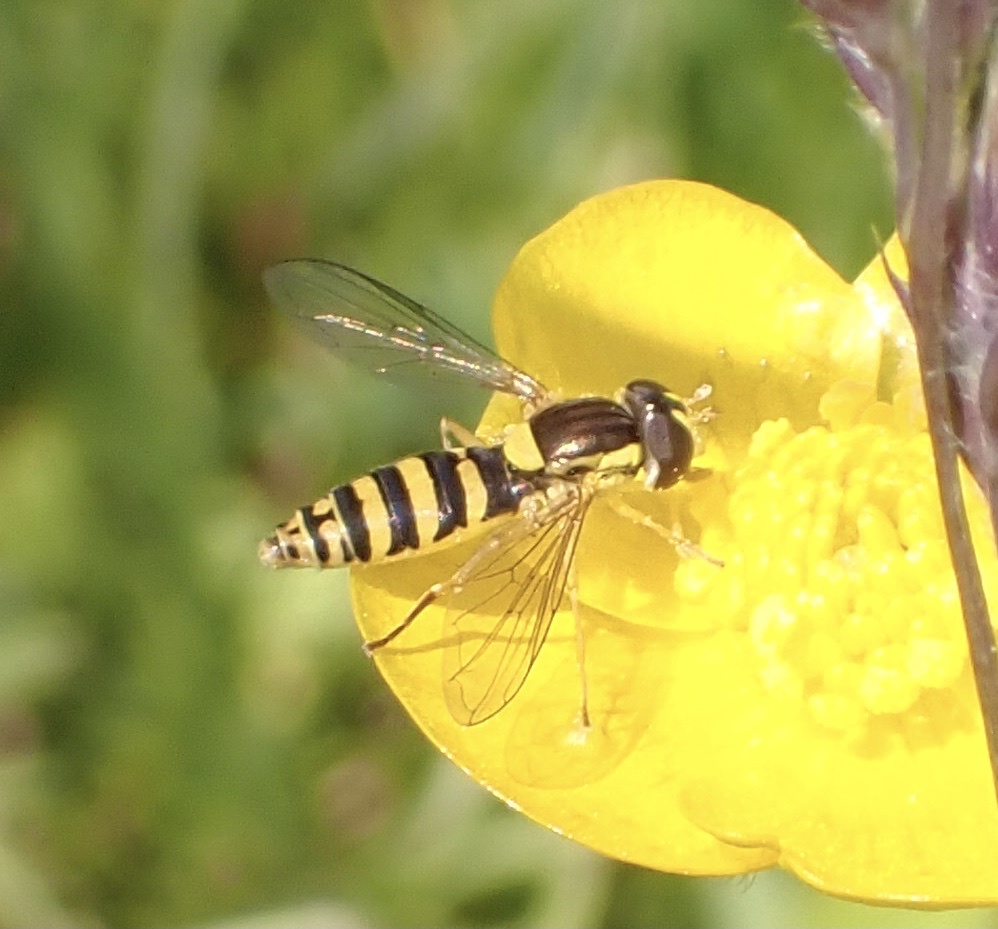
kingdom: Animalia
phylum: Arthropoda
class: Insecta
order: Diptera
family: Syrphidae
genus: Sphaerophoria
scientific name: Sphaerophoria
